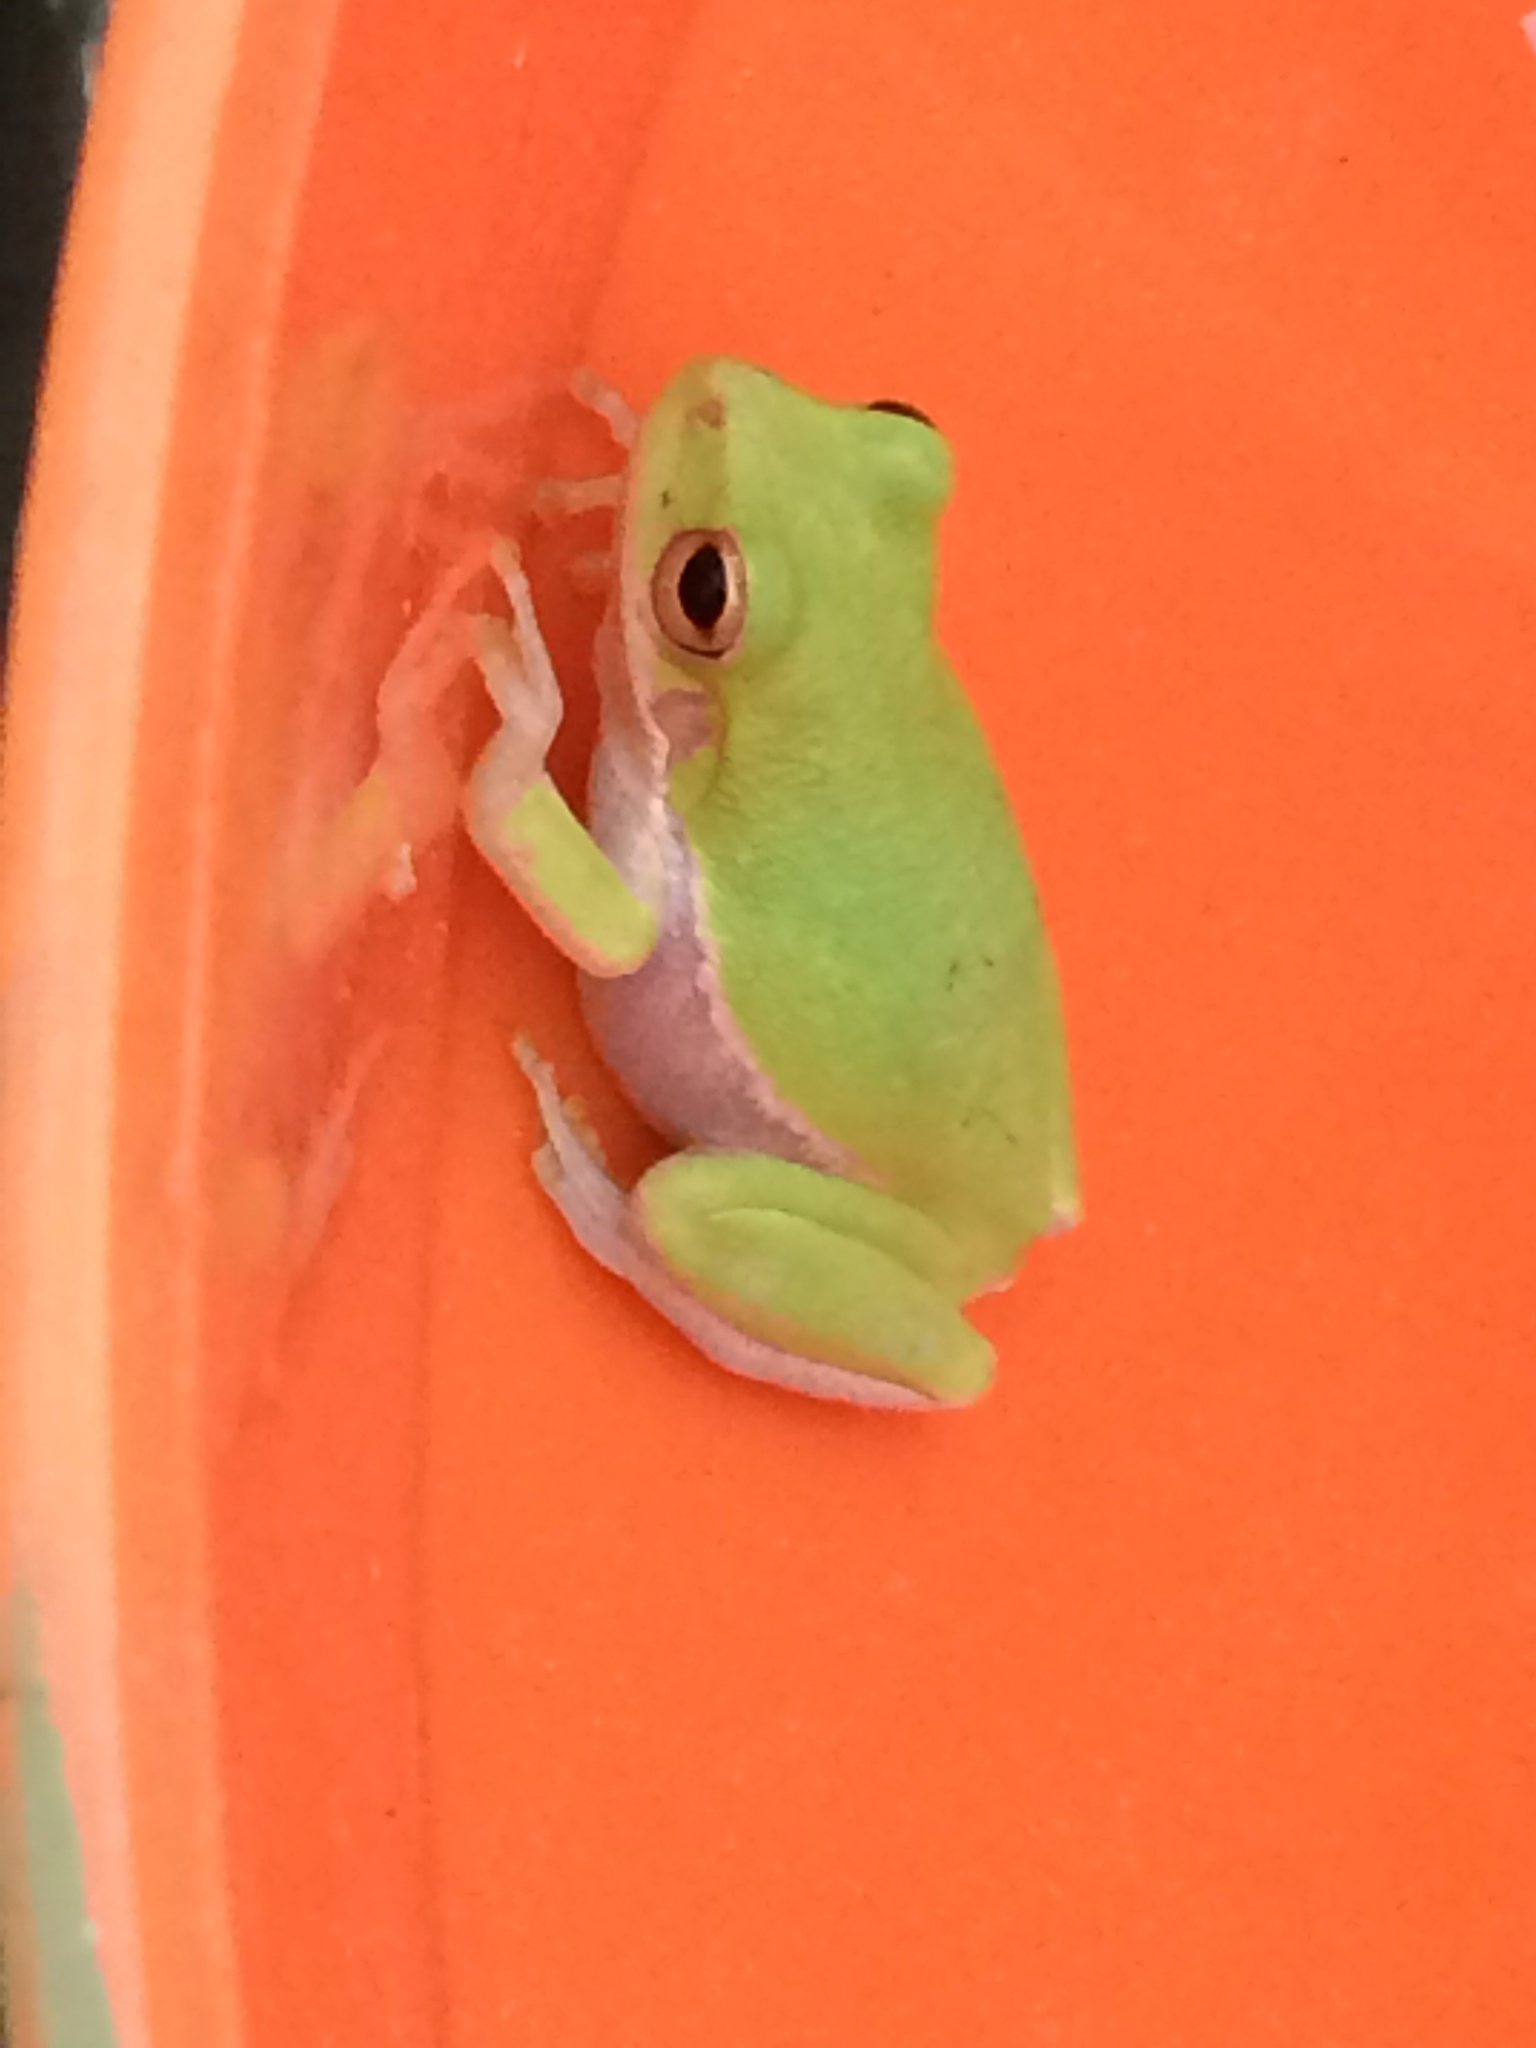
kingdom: Animalia
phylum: Chordata
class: Amphibia
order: Anura
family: Hylidae
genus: Dryophytes
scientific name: Dryophytes squirellus
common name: Squirrel treefrog
